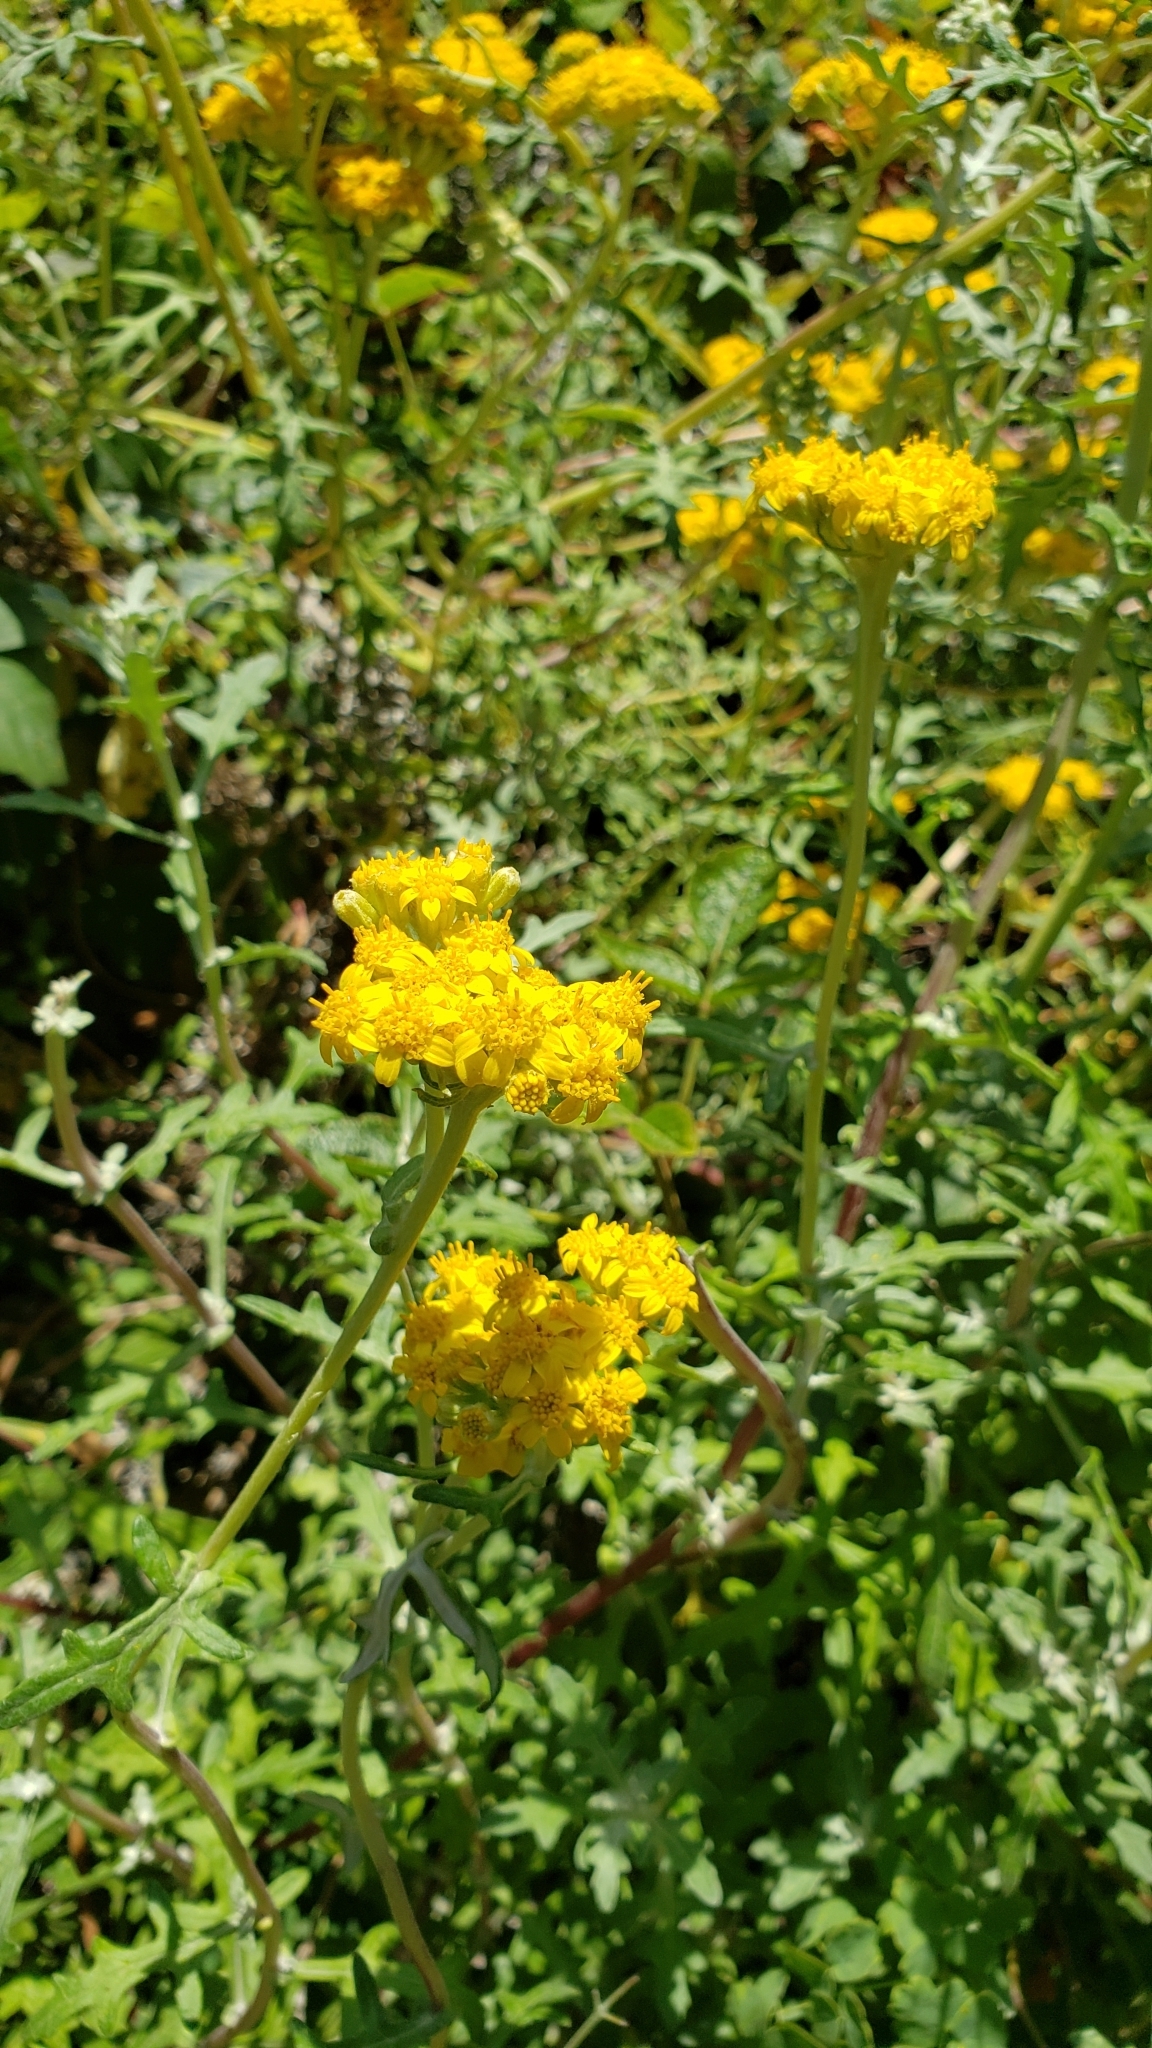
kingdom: Plantae
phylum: Tracheophyta
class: Magnoliopsida
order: Asterales
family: Asteraceae
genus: Eriophyllum
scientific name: Eriophyllum staechadifolium
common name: Lizardtail
